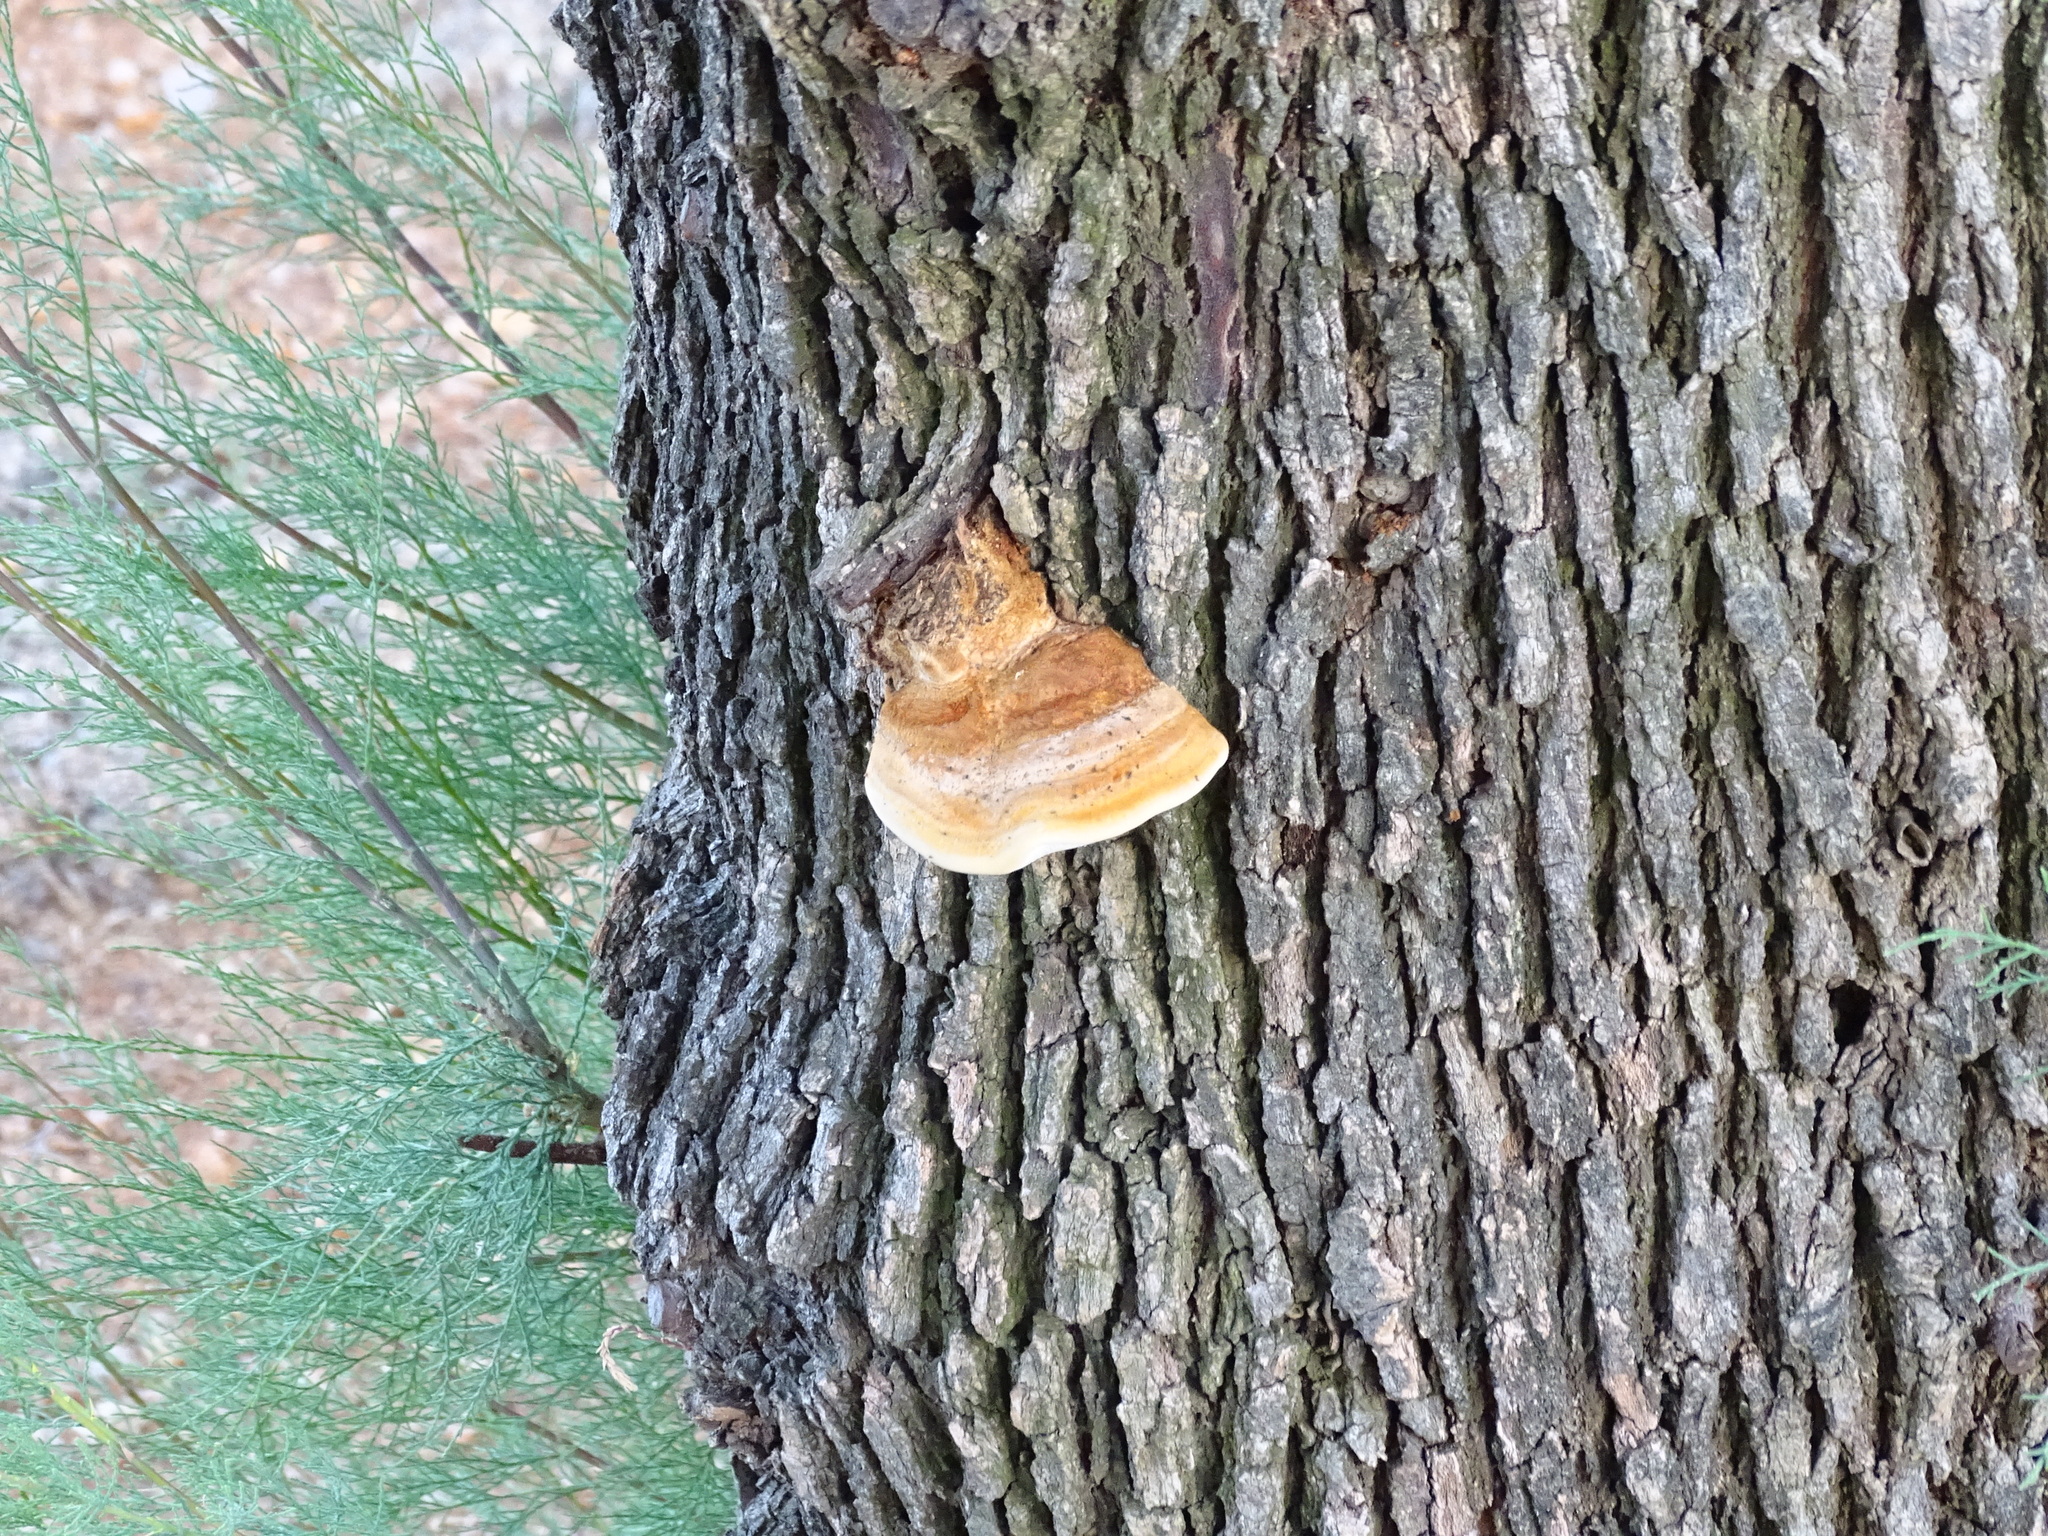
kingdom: Fungi
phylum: Basidiomycota
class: Agaricomycetes
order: Hymenochaetales
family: Hymenochaetaceae
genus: Inocutis
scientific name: Inocutis tamaricis
